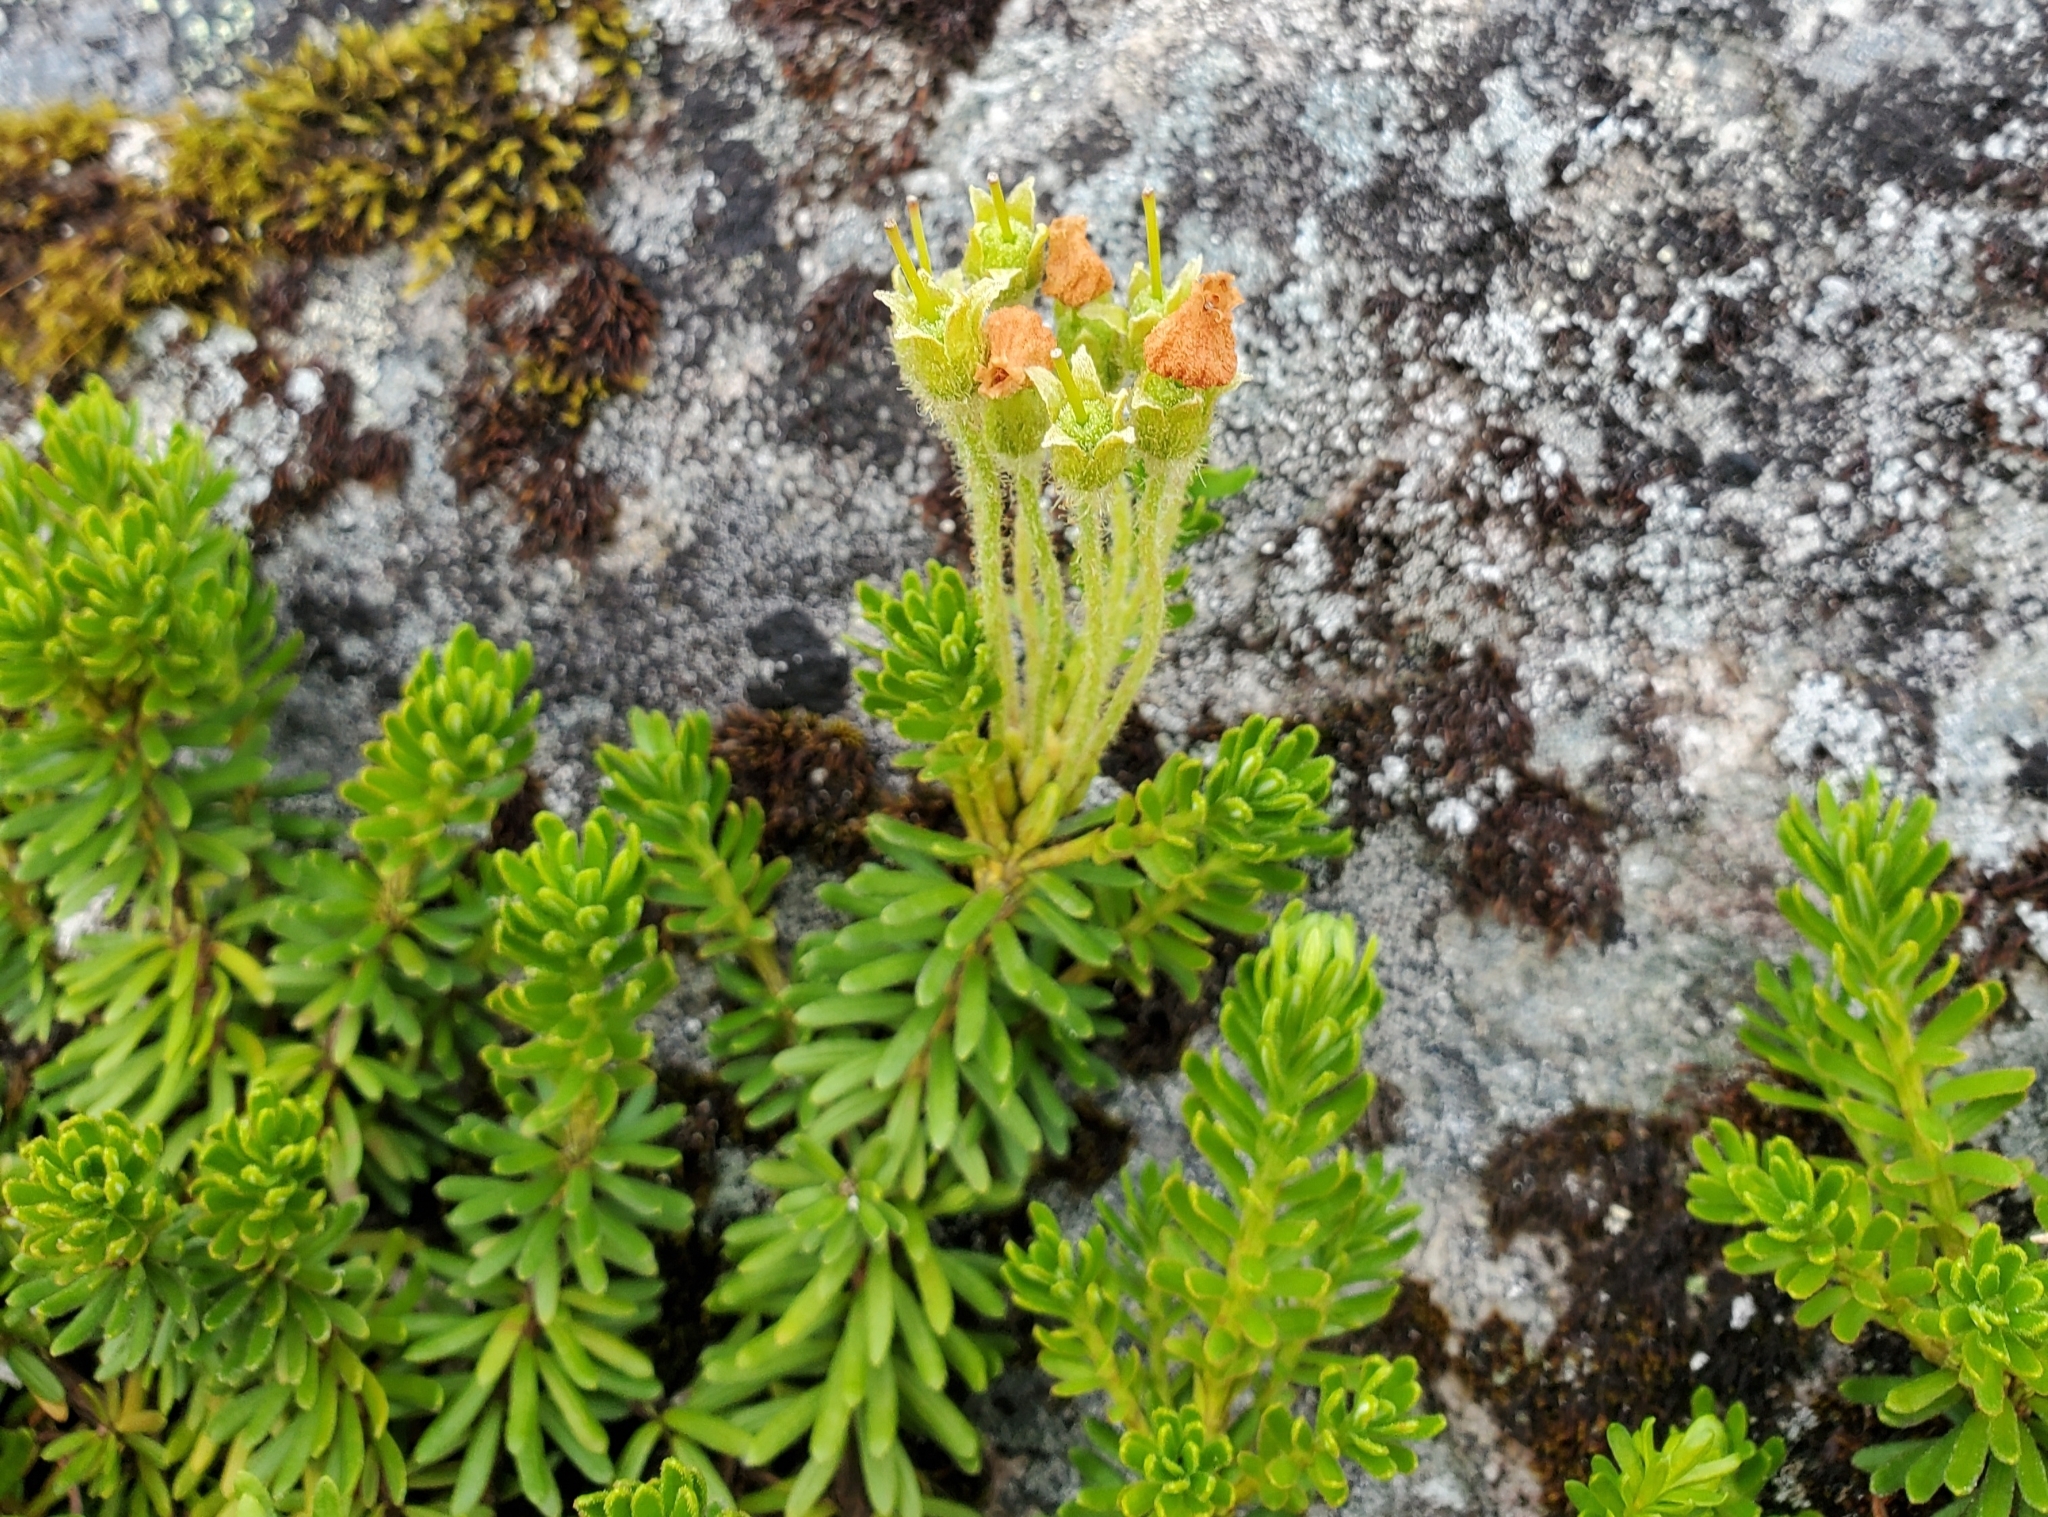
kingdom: Plantae
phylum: Tracheophyta
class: Magnoliopsida
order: Ericales
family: Ericaceae
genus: Phyllodoce
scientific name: Phyllodoce glanduliflora
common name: Cream mountain heather
